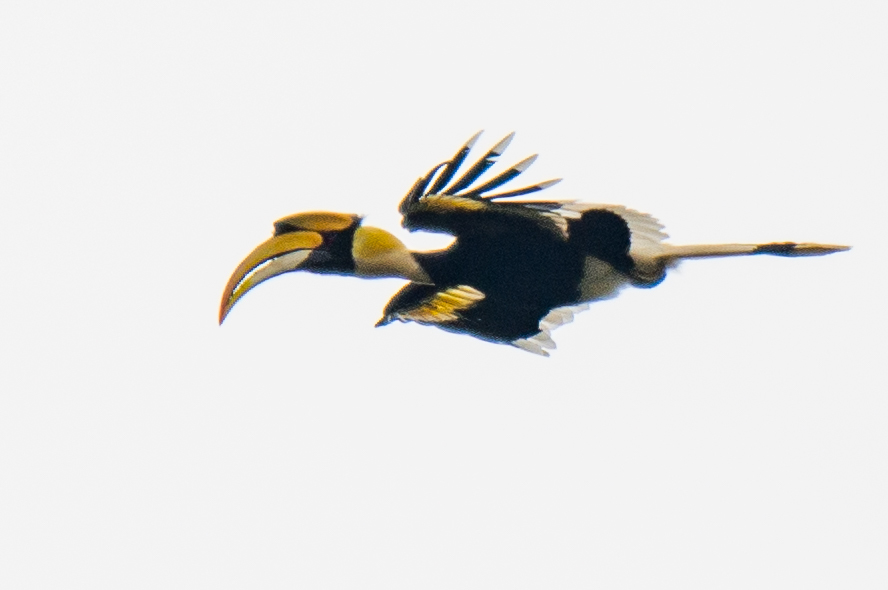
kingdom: Animalia
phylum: Chordata
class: Aves
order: Bucerotiformes
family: Bucerotidae
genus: Buceros
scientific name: Buceros bicornis
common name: Great hornbill
